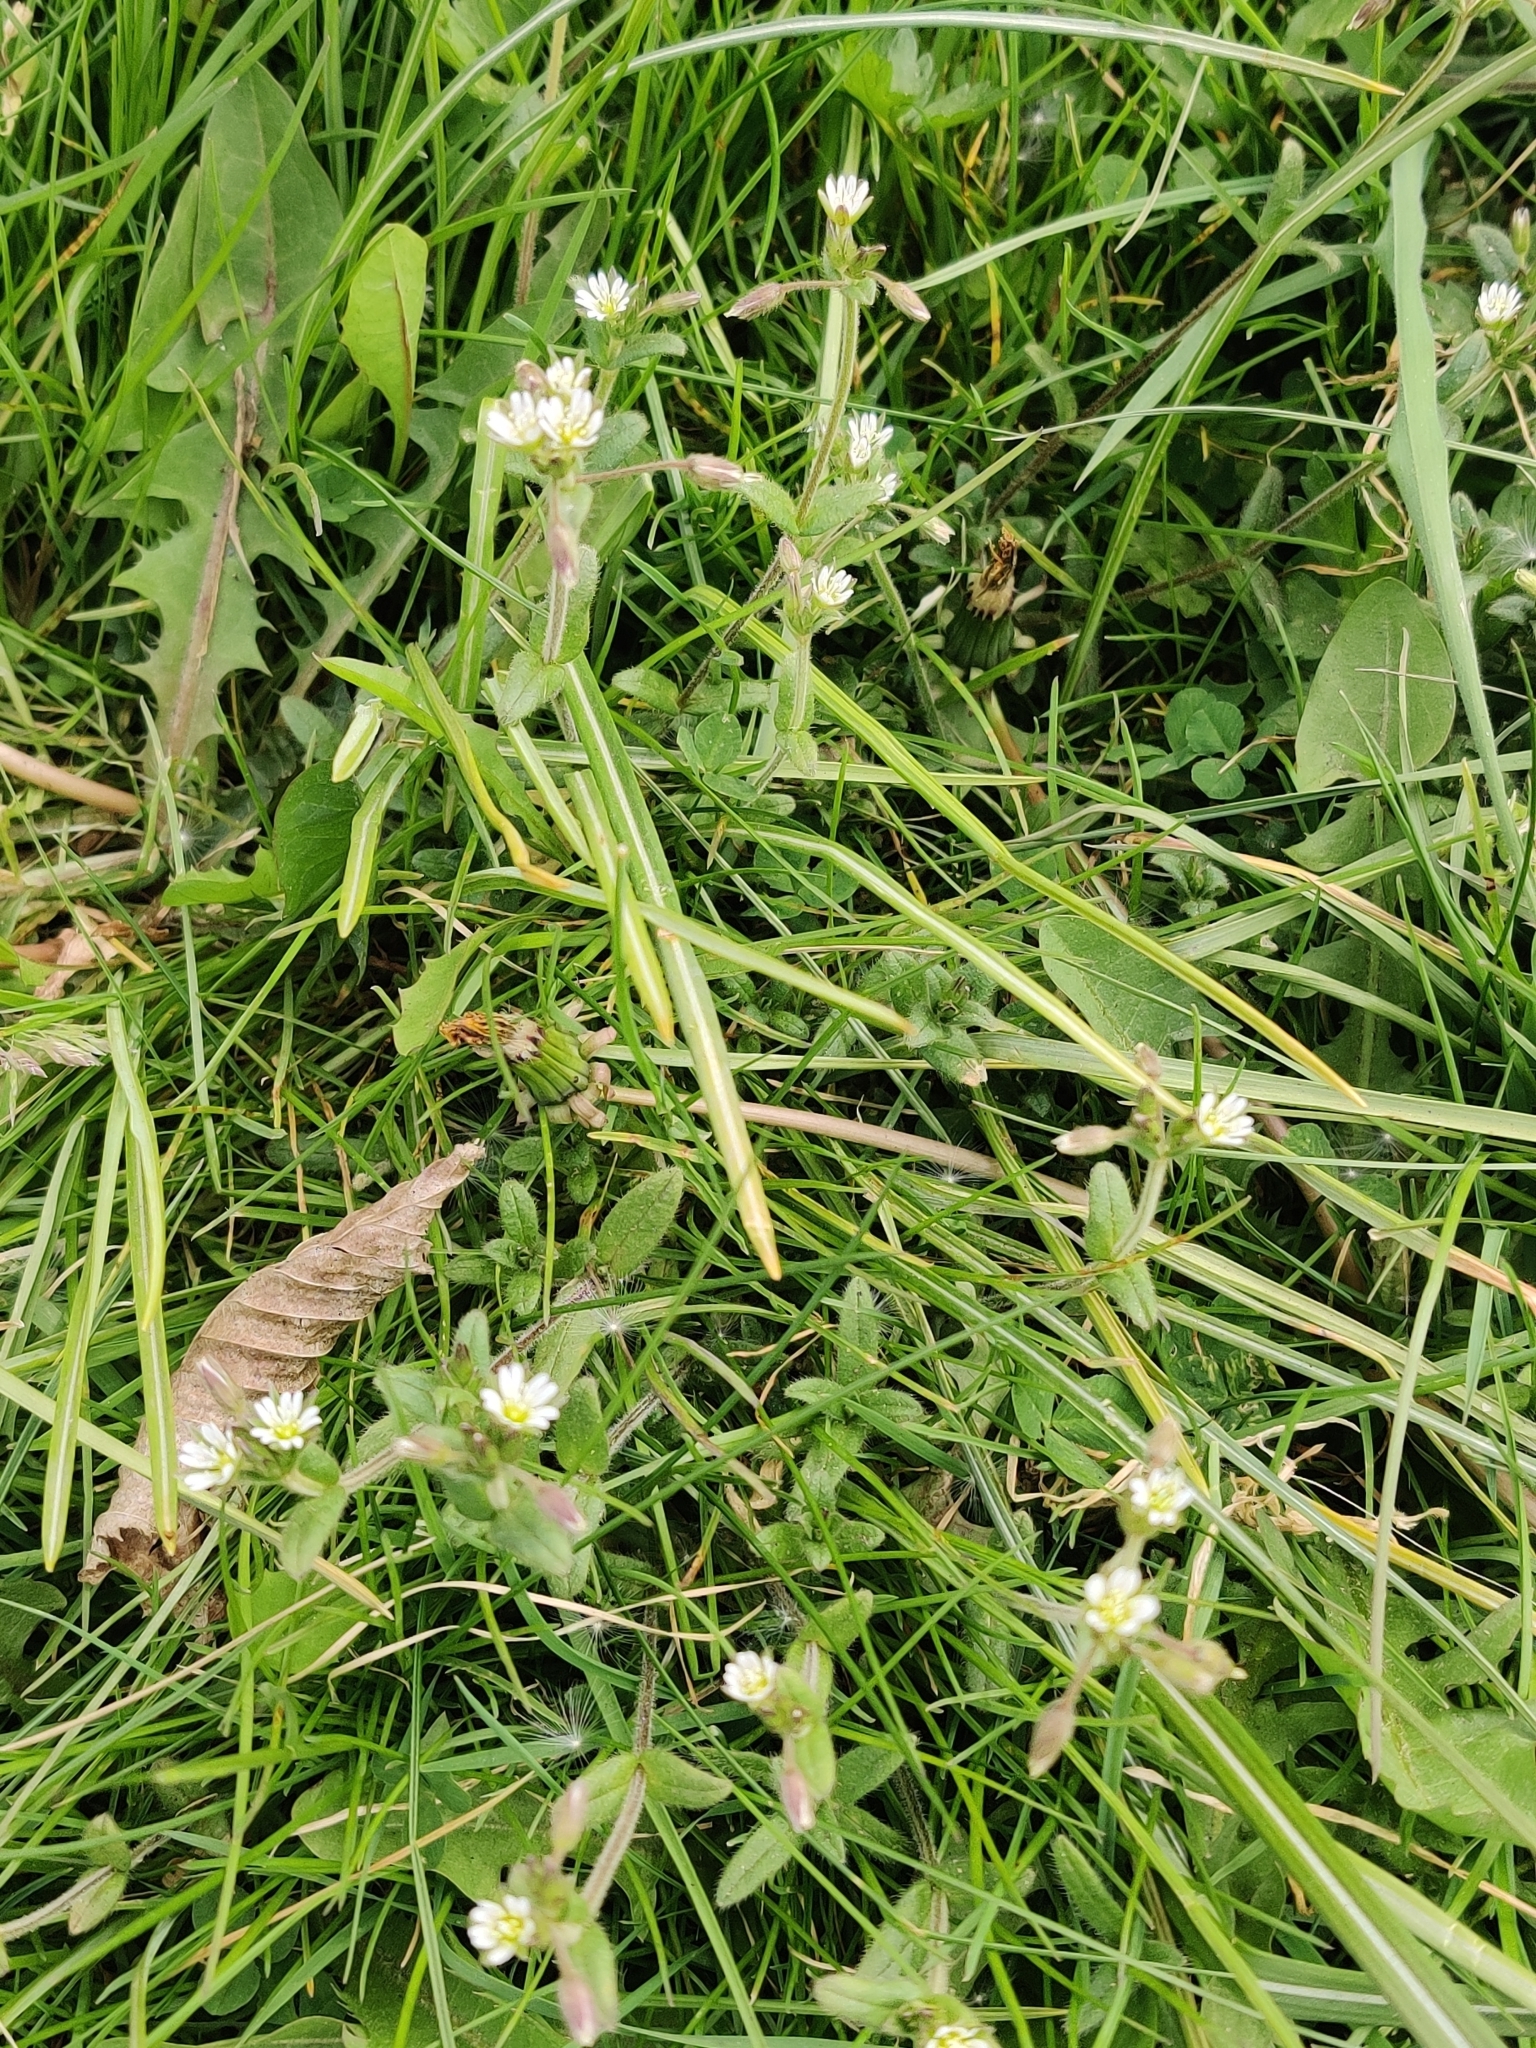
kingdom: Plantae
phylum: Tracheophyta
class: Magnoliopsida
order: Caryophyllales
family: Caryophyllaceae
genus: Cerastium
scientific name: Cerastium fontanum
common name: Common mouse-ear
